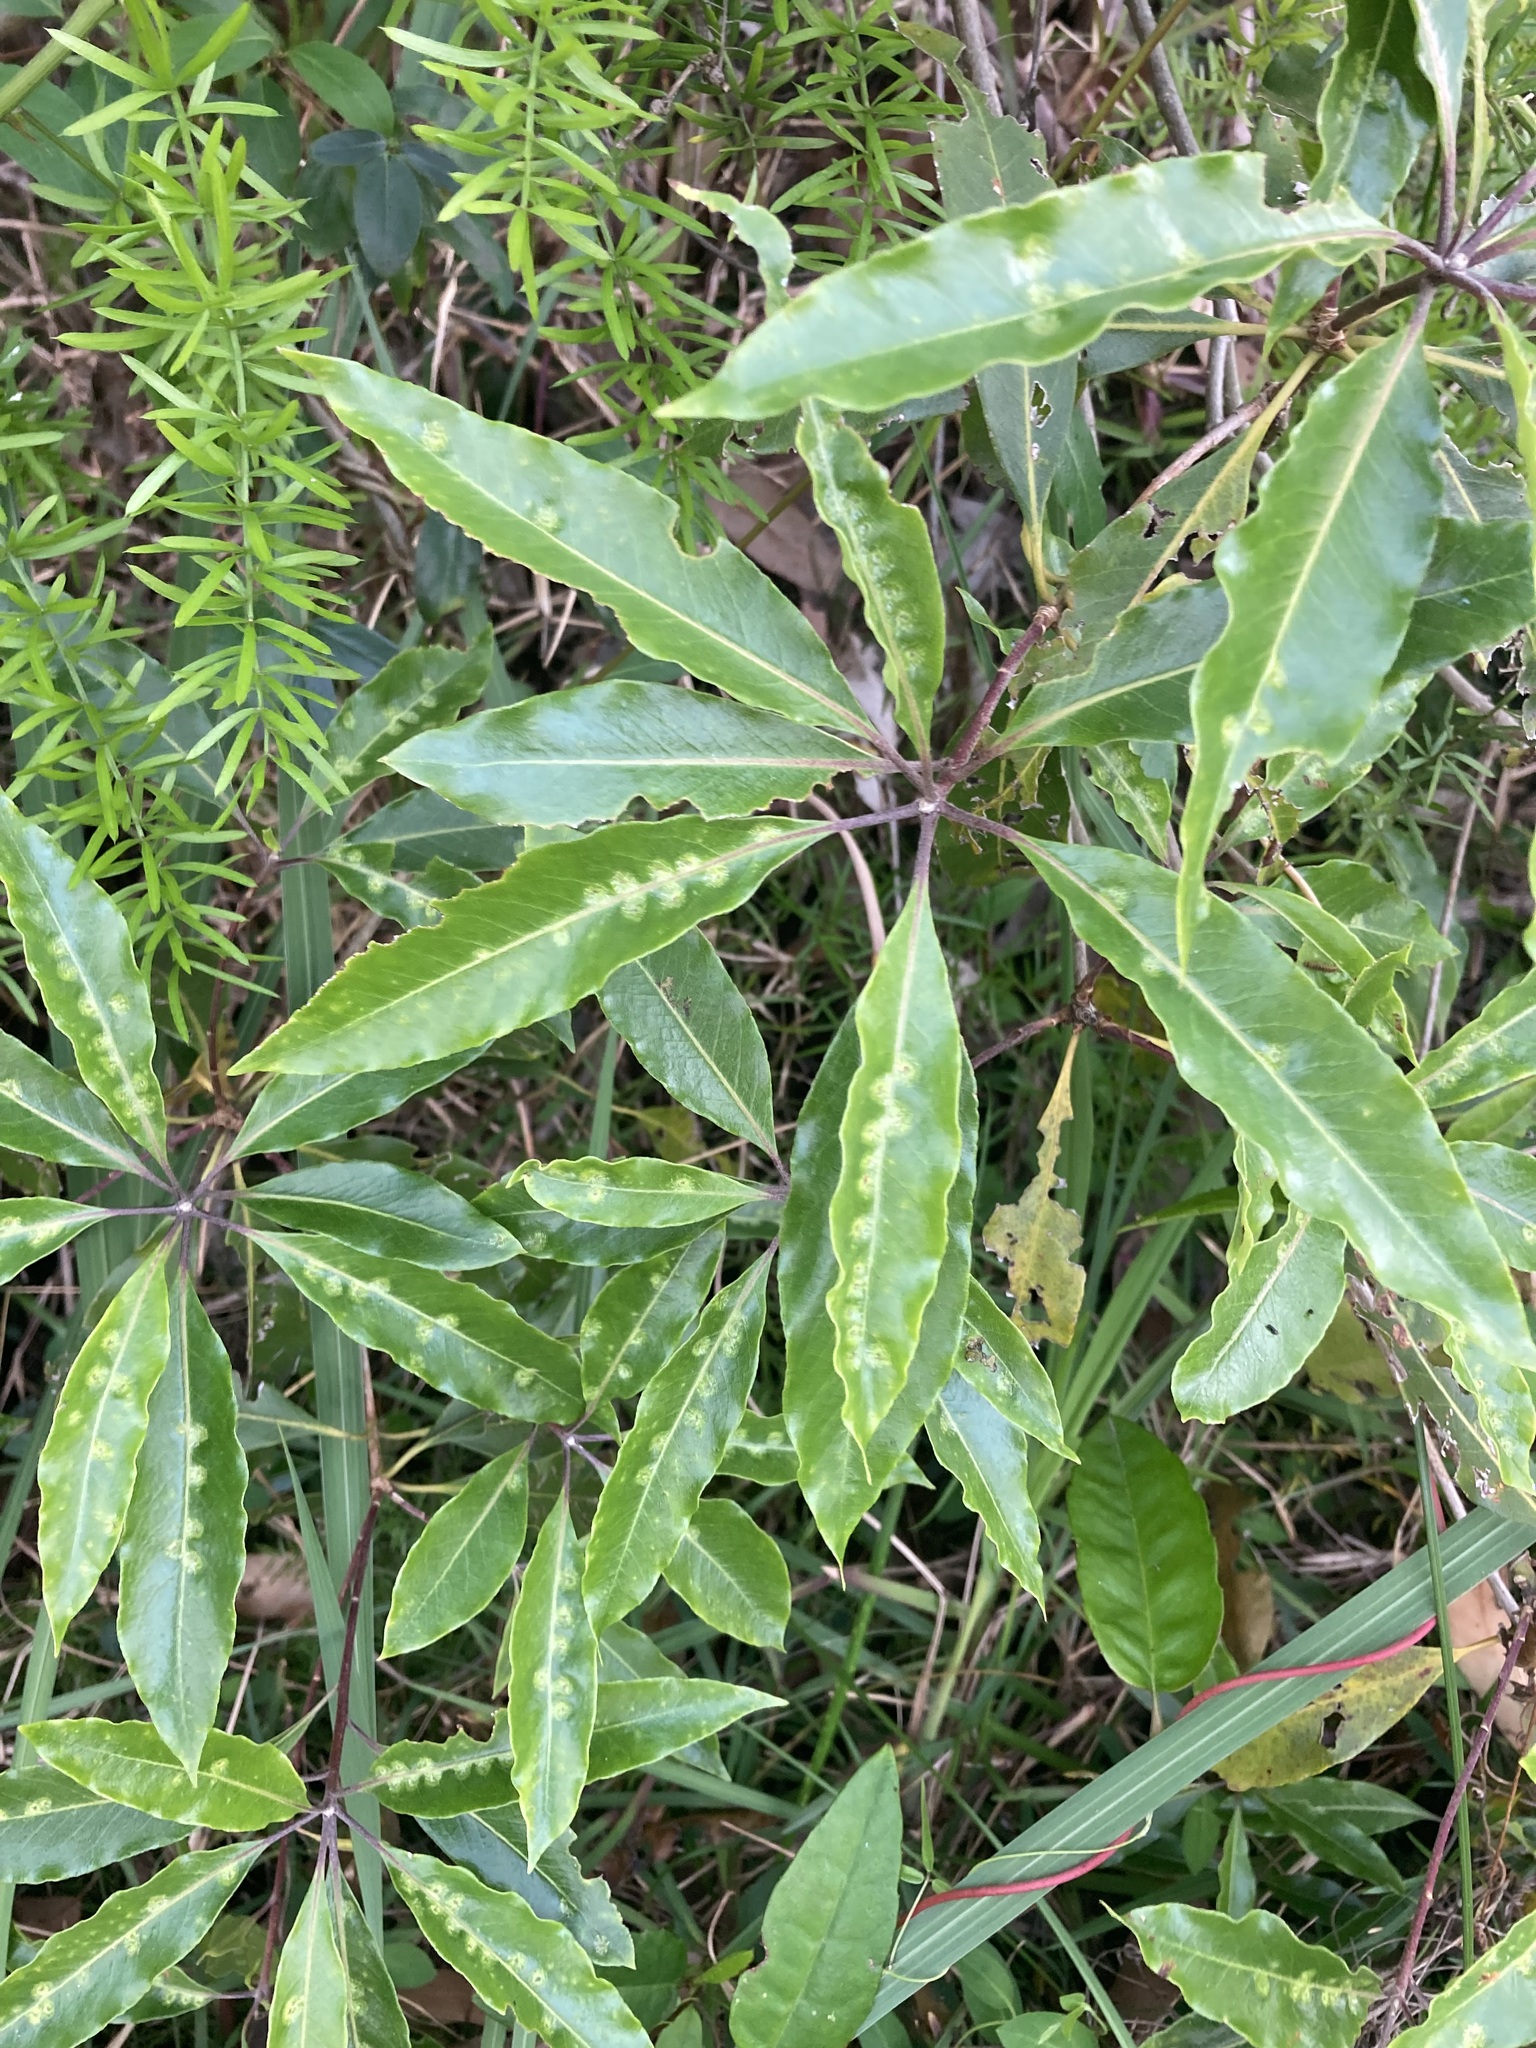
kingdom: Animalia
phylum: Arthropoda
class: Insecta
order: Diptera
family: Agromyzidae
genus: Phytoliriomyza
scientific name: Phytoliriomyza pittosporophylli
